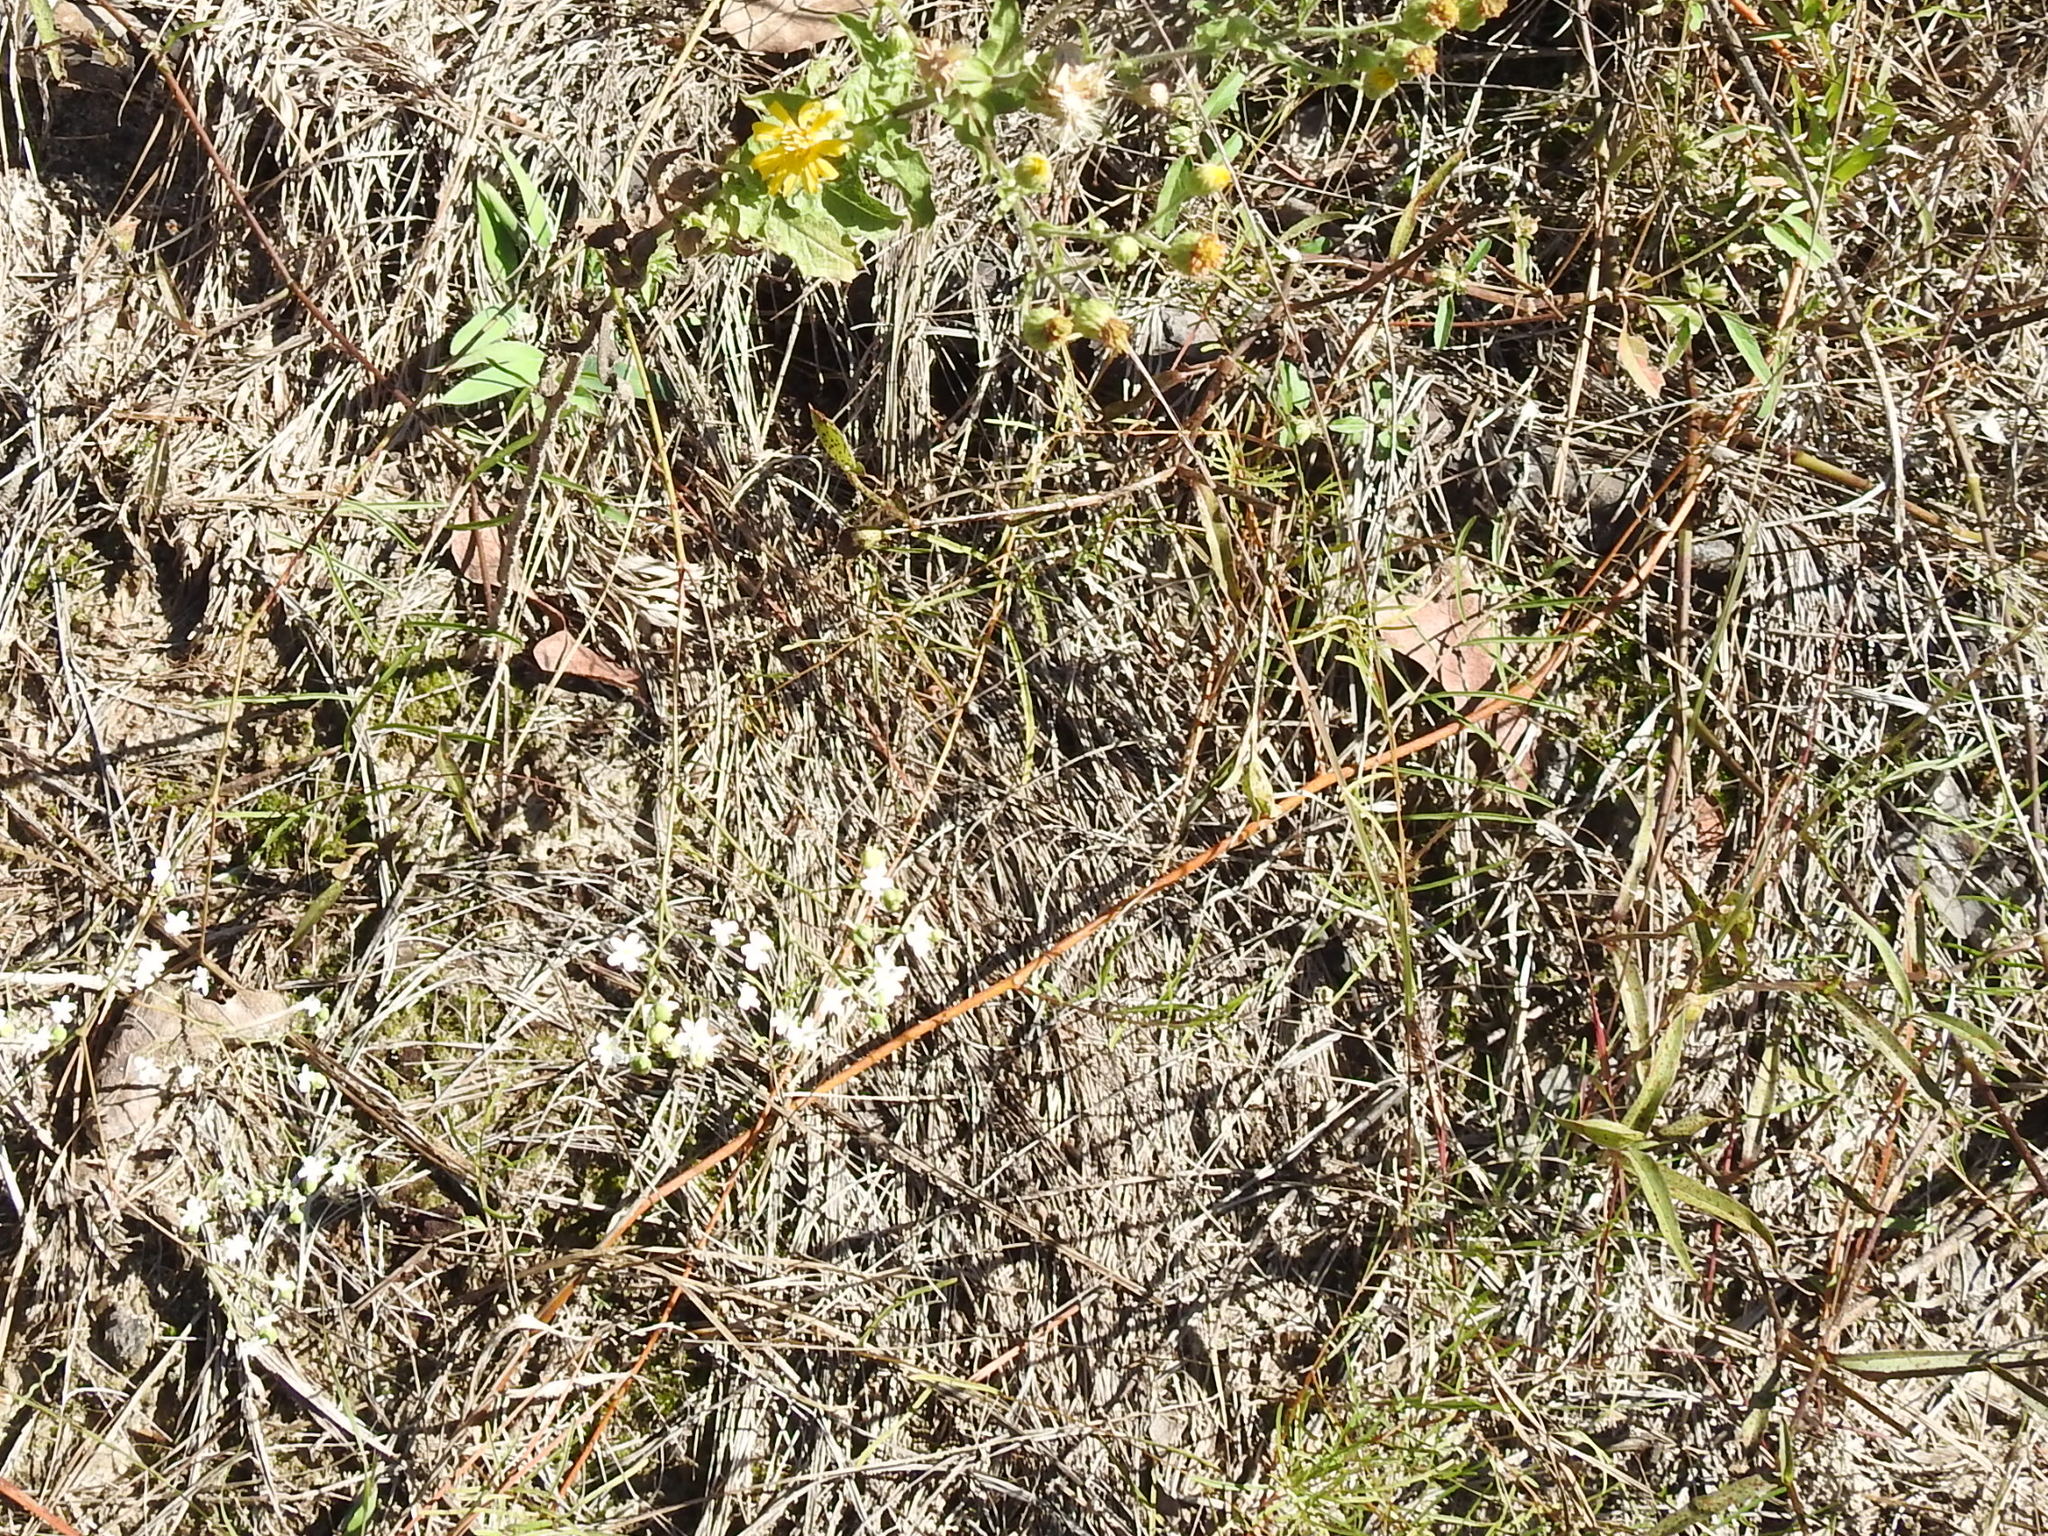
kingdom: Plantae
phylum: Tracheophyta
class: Magnoliopsida
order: Malpighiales
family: Euphorbiaceae
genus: Euphorbia
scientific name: Euphorbia corollata
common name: Flowering spurge
